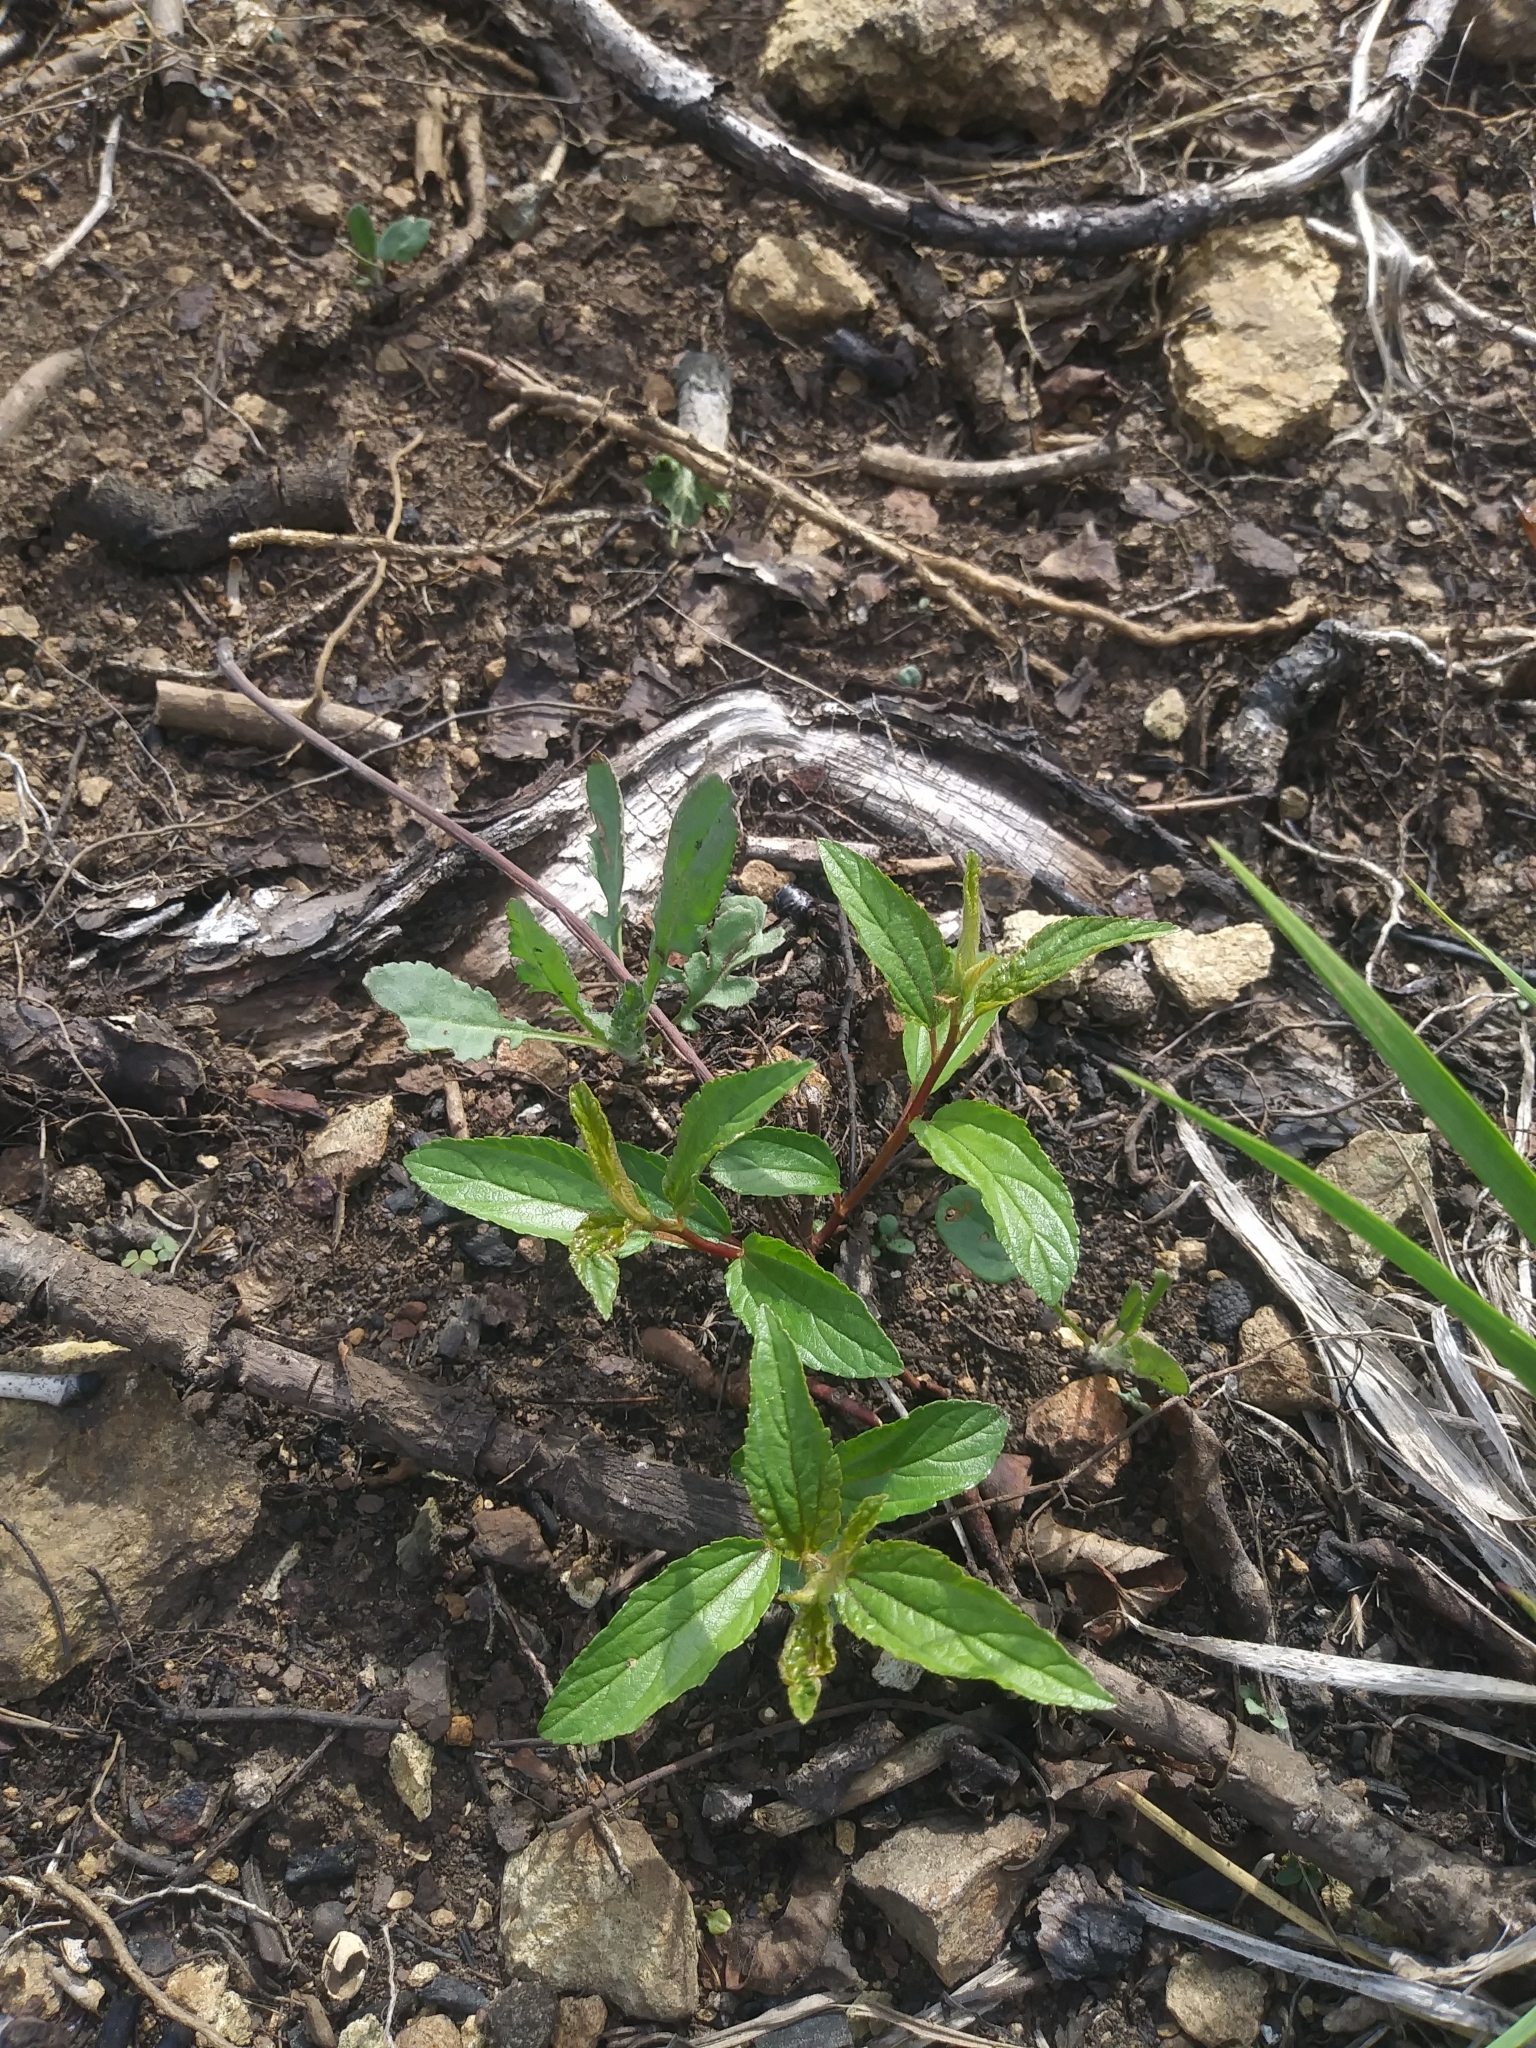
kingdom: Plantae
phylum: Tracheophyta
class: Magnoliopsida
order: Rosales
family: Rhamnaceae
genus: Ceanothus
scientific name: Ceanothus americanus
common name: Redroot
